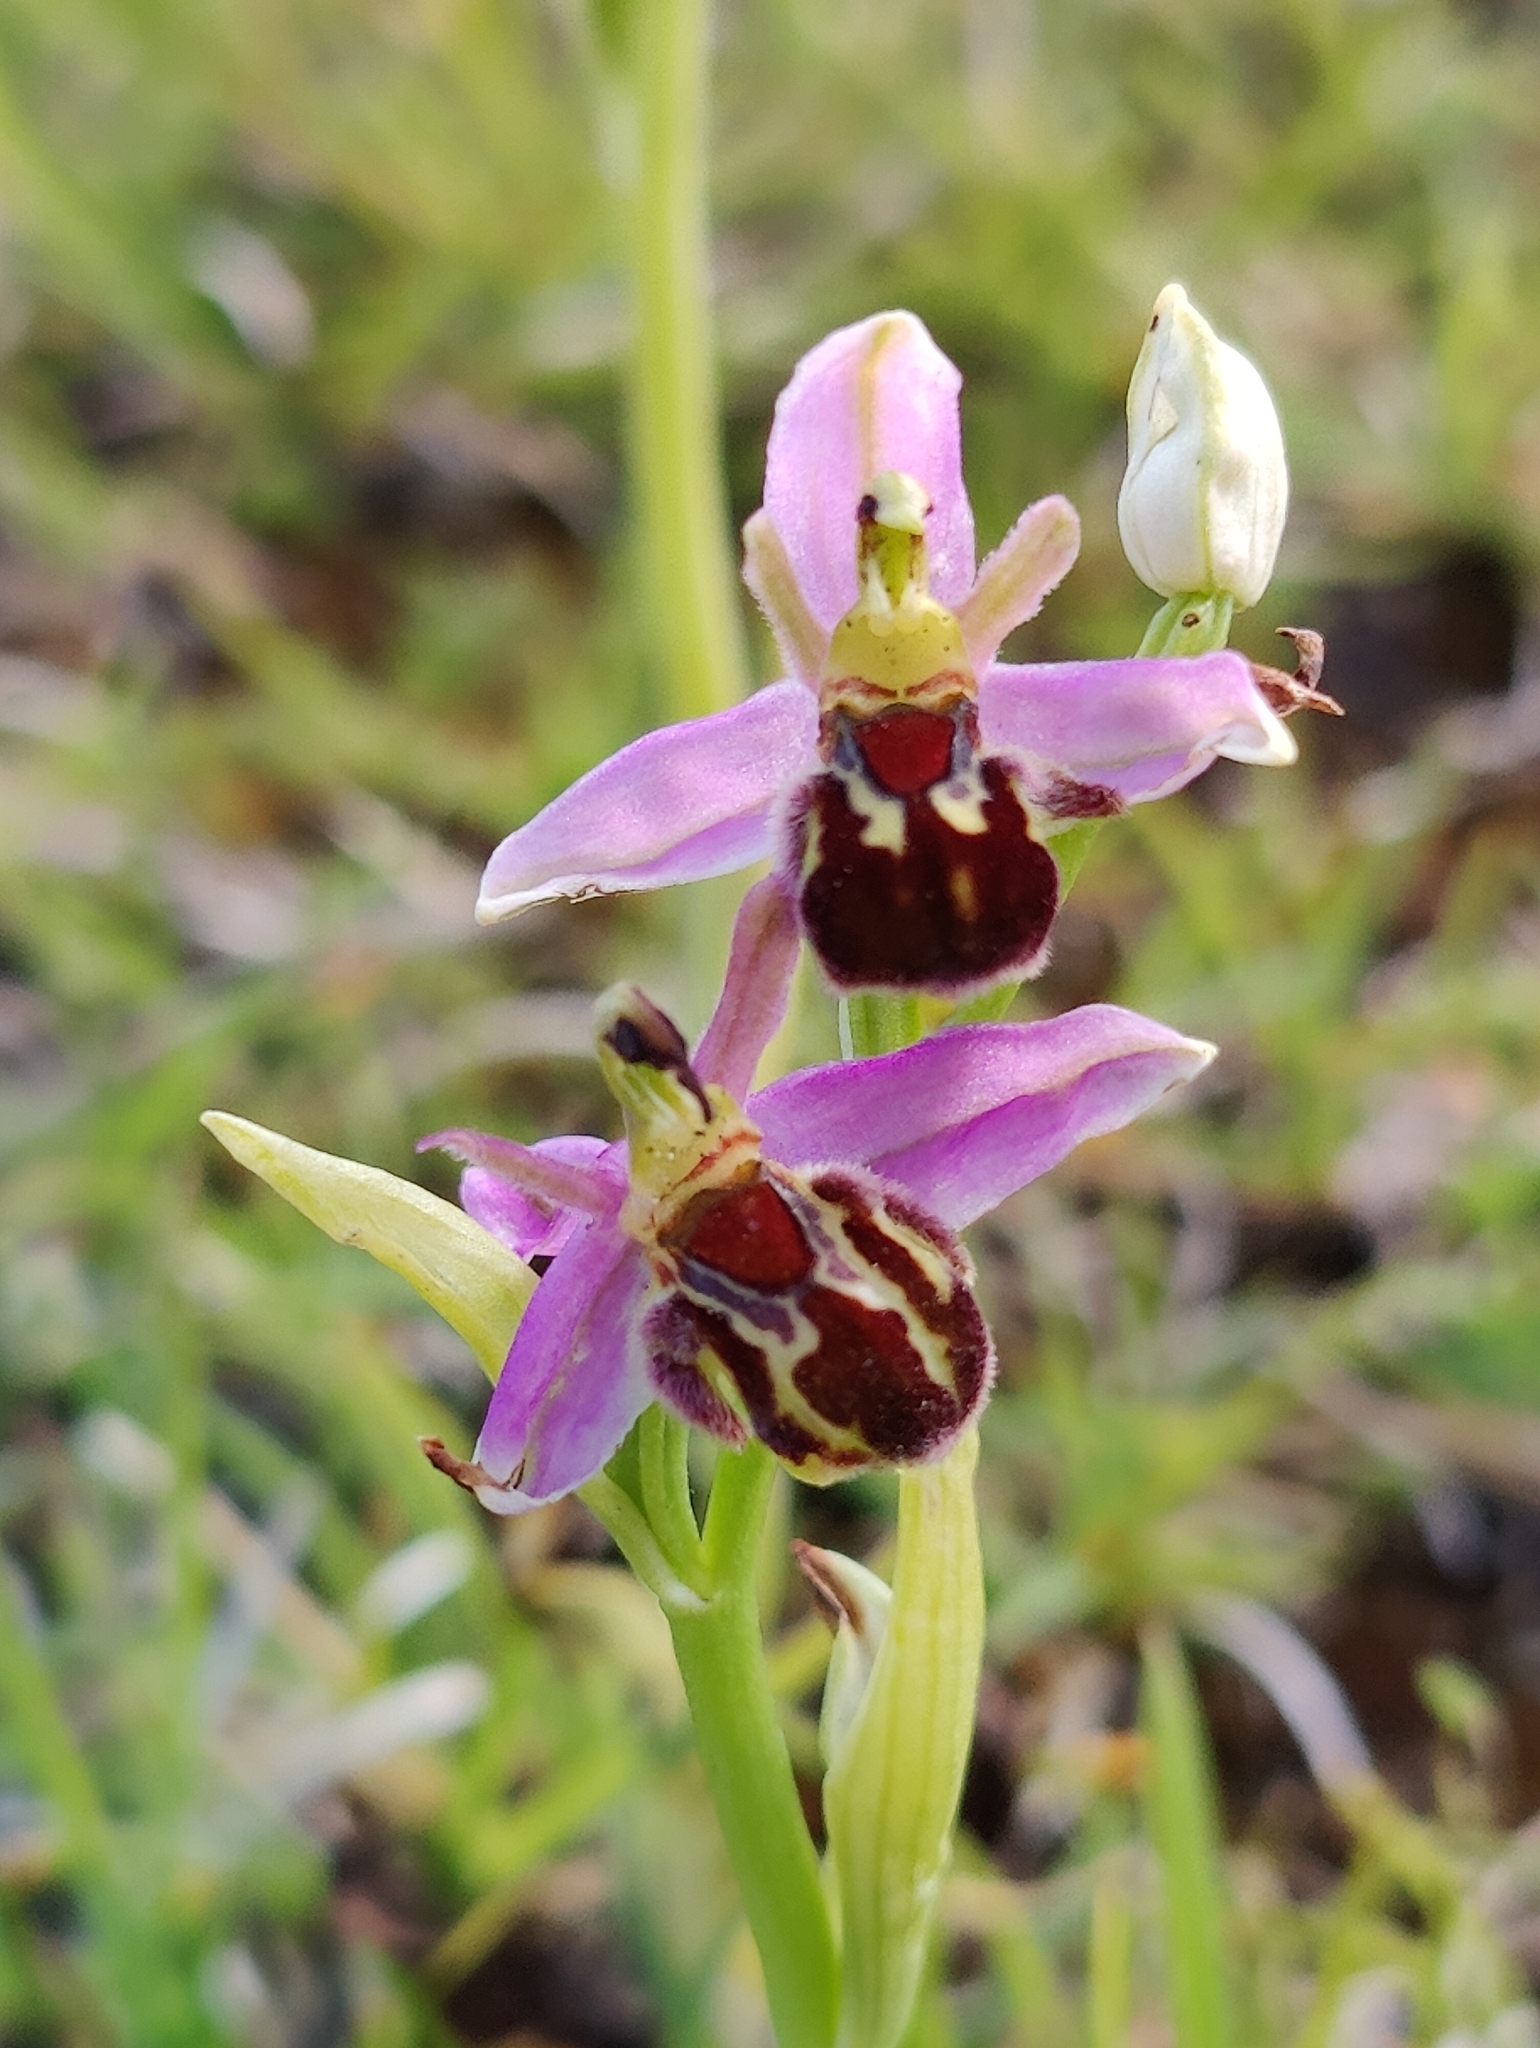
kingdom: Plantae
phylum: Tracheophyta
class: Liliopsida
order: Asparagales
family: Orchidaceae
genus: Ophrys
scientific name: Ophrys apifera
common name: Bee orchid
